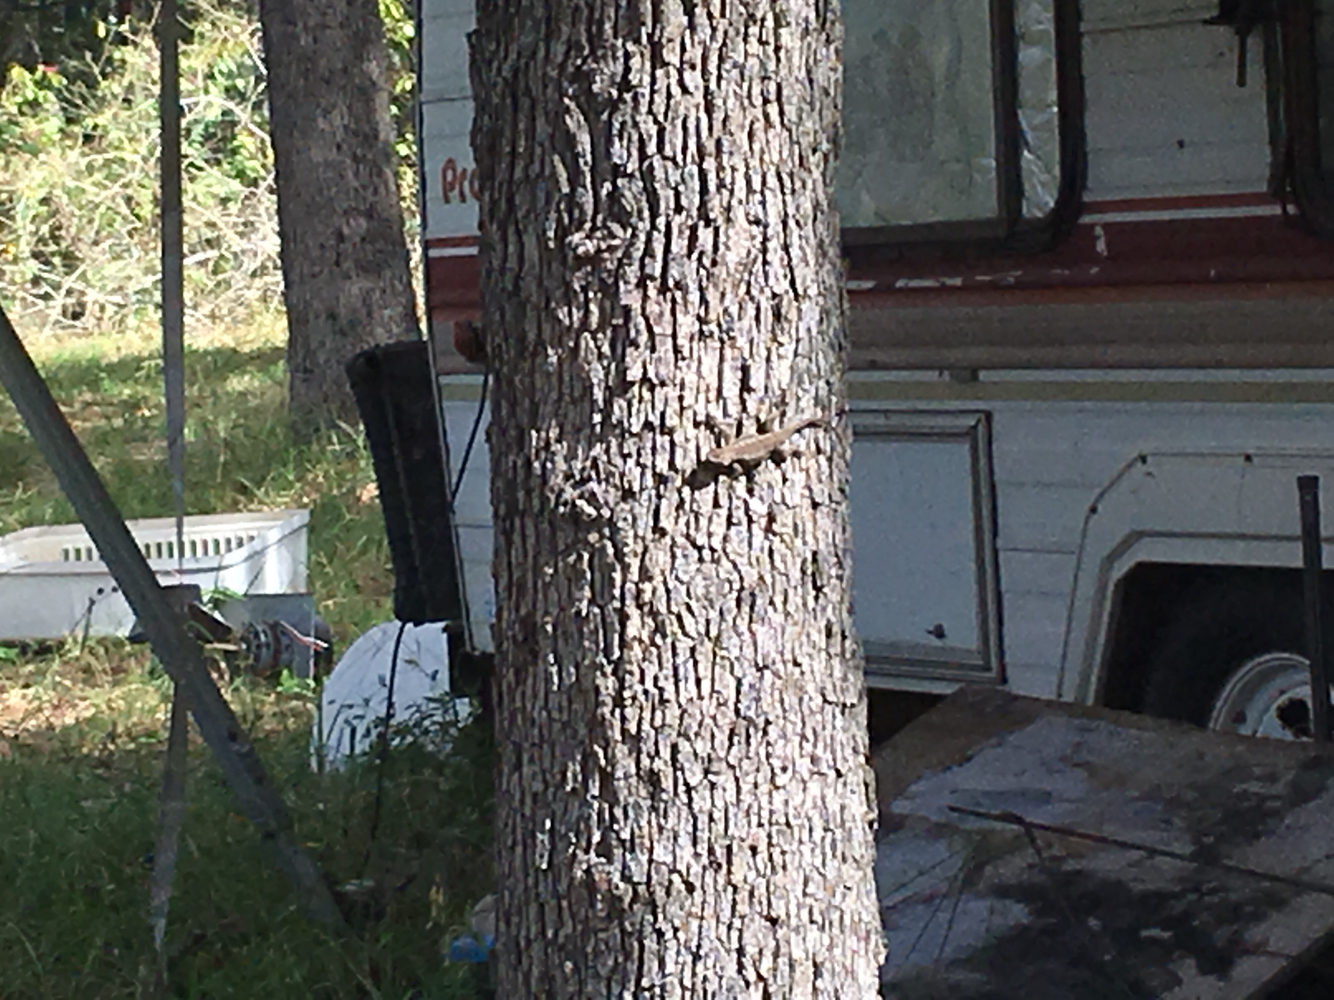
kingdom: Animalia
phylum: Chordata
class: Squamata
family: Phrynosomatidae
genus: Sceloporus
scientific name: Sceloporus olivaceus
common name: Texas spiny lizard
